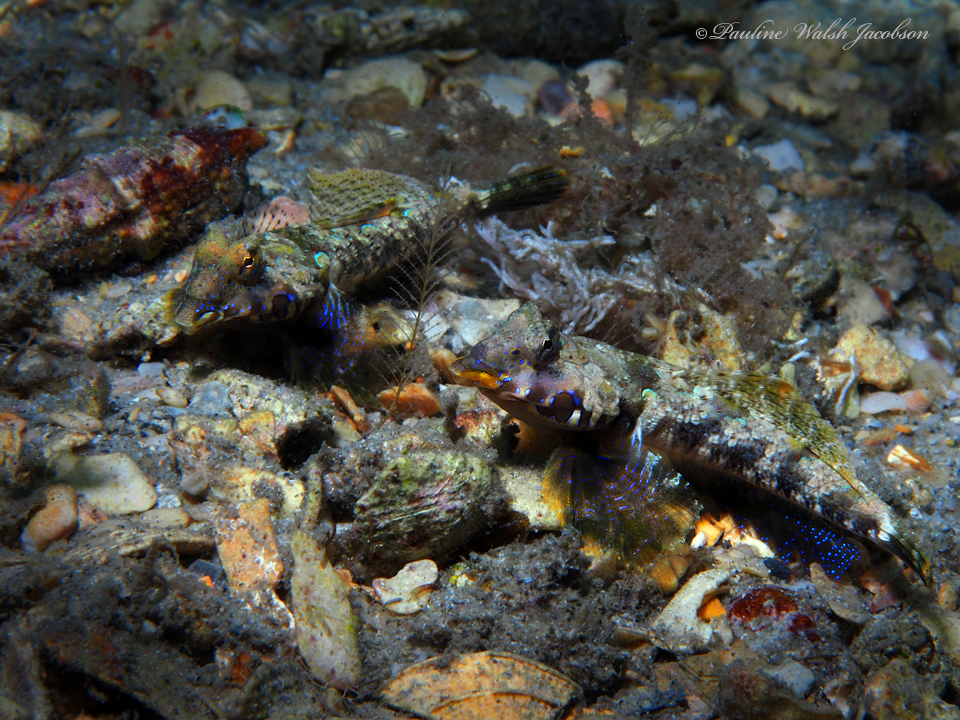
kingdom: Animalia
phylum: Chordata
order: Perciformes
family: Callionymidae
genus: Callionymus
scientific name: Callionymus bairdi
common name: Lancer dragonet
